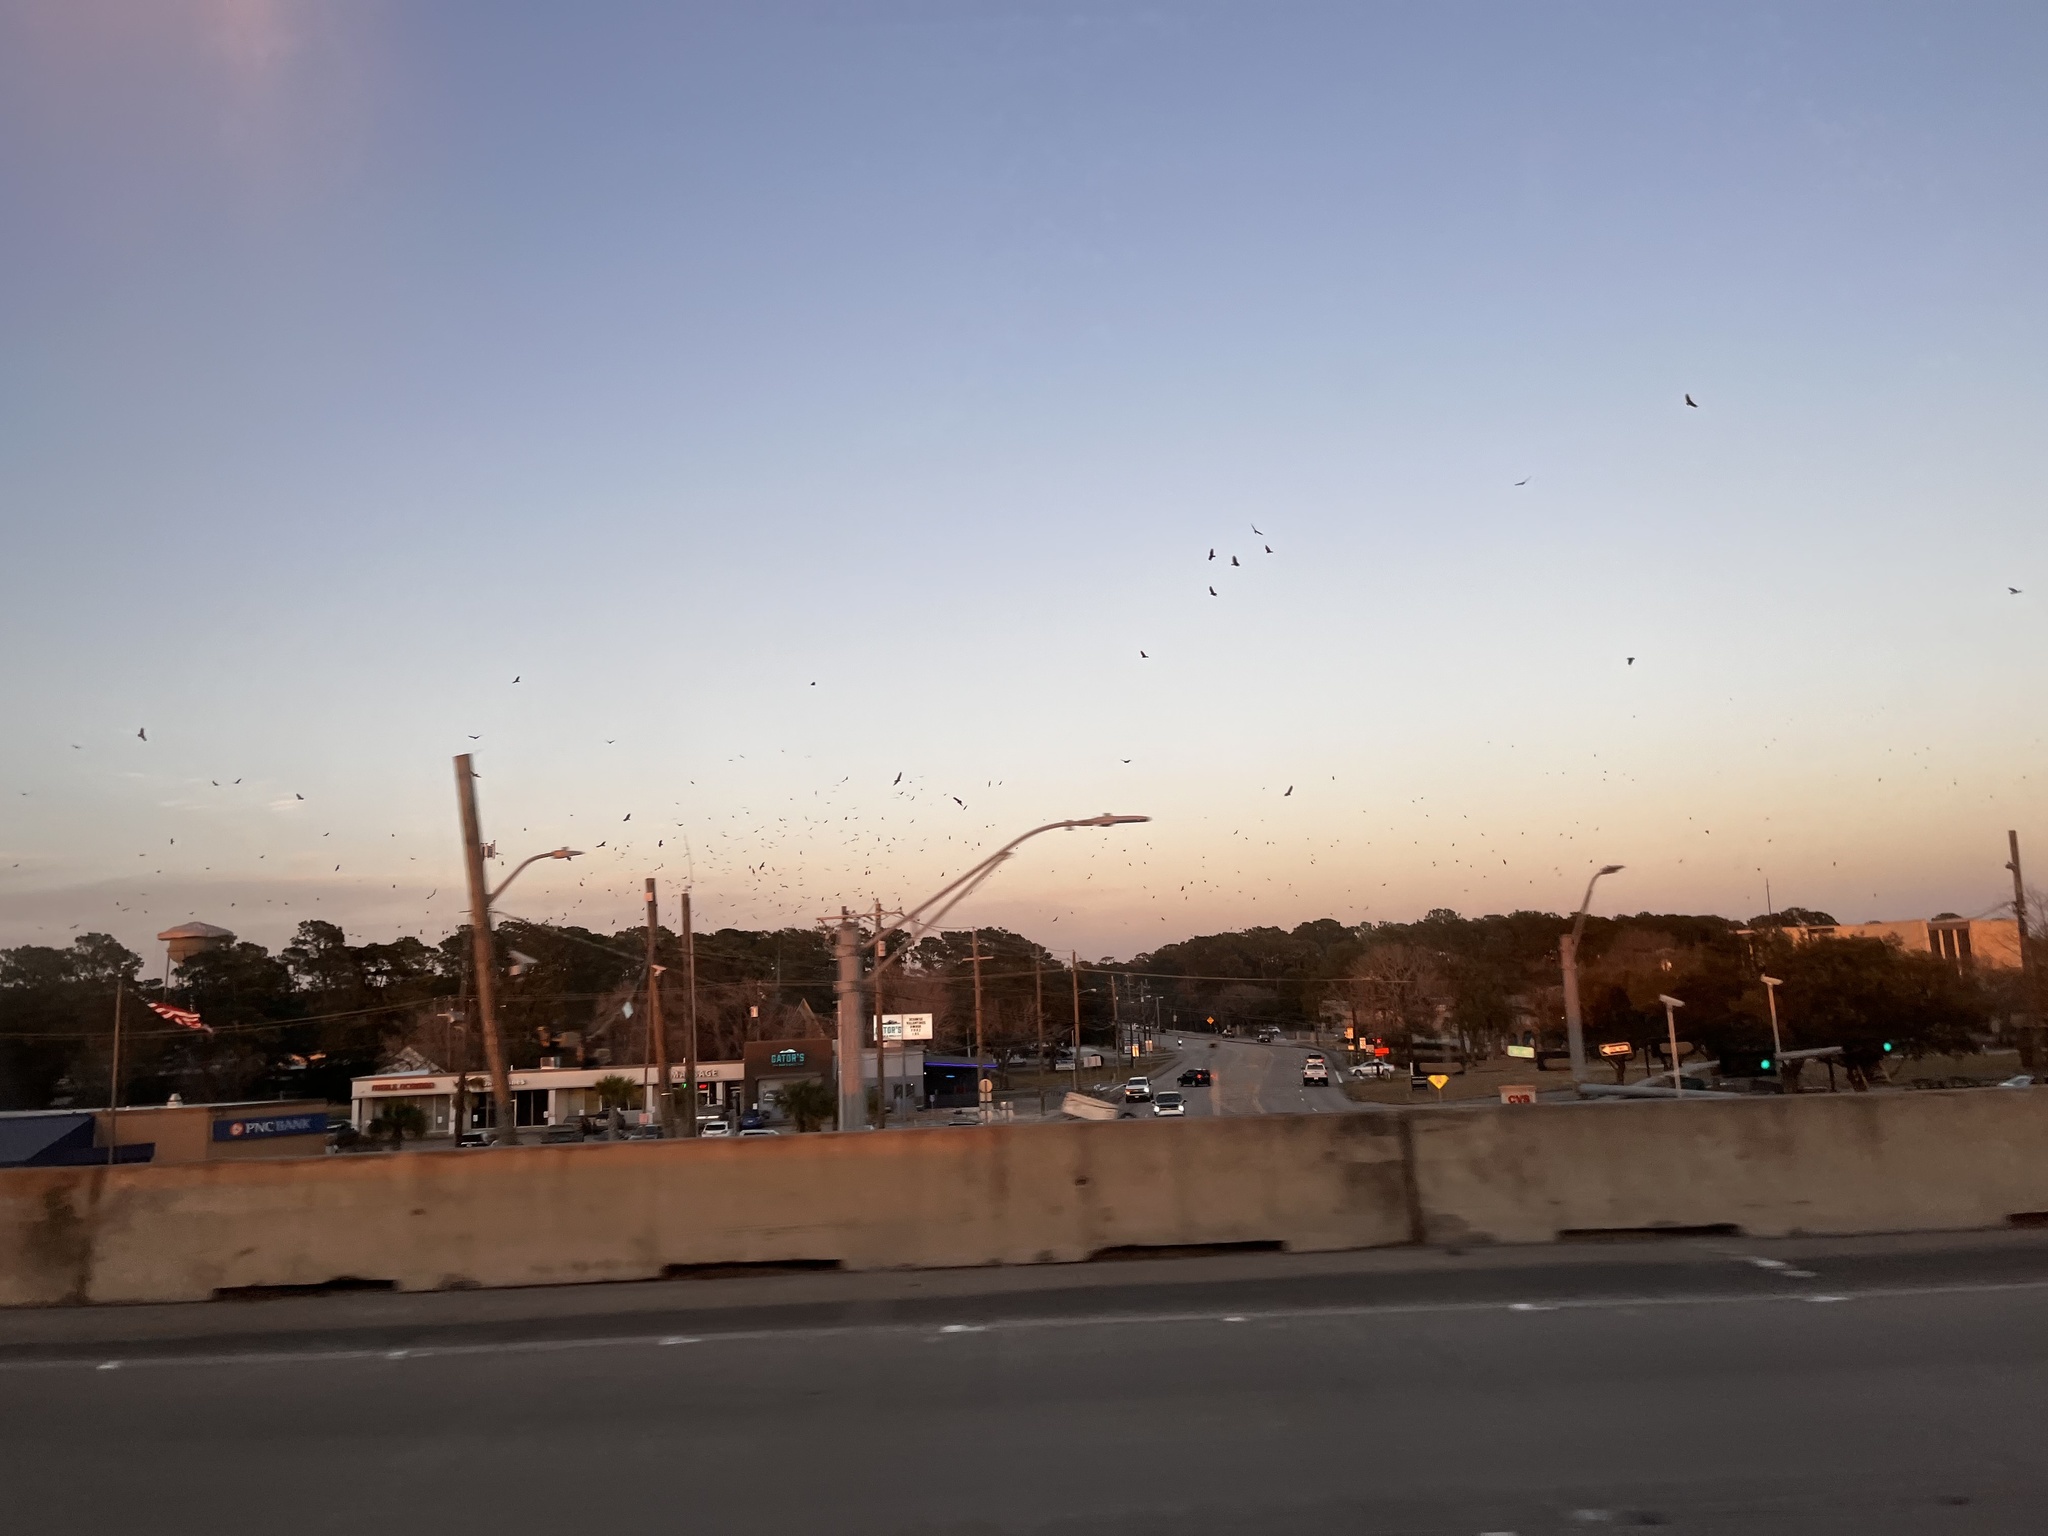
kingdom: Animalia
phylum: Chordata
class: Aves
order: Accipitriformes
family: Cathartidae
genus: Cathartes
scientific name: Cathartes aura
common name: Turkey vulture
